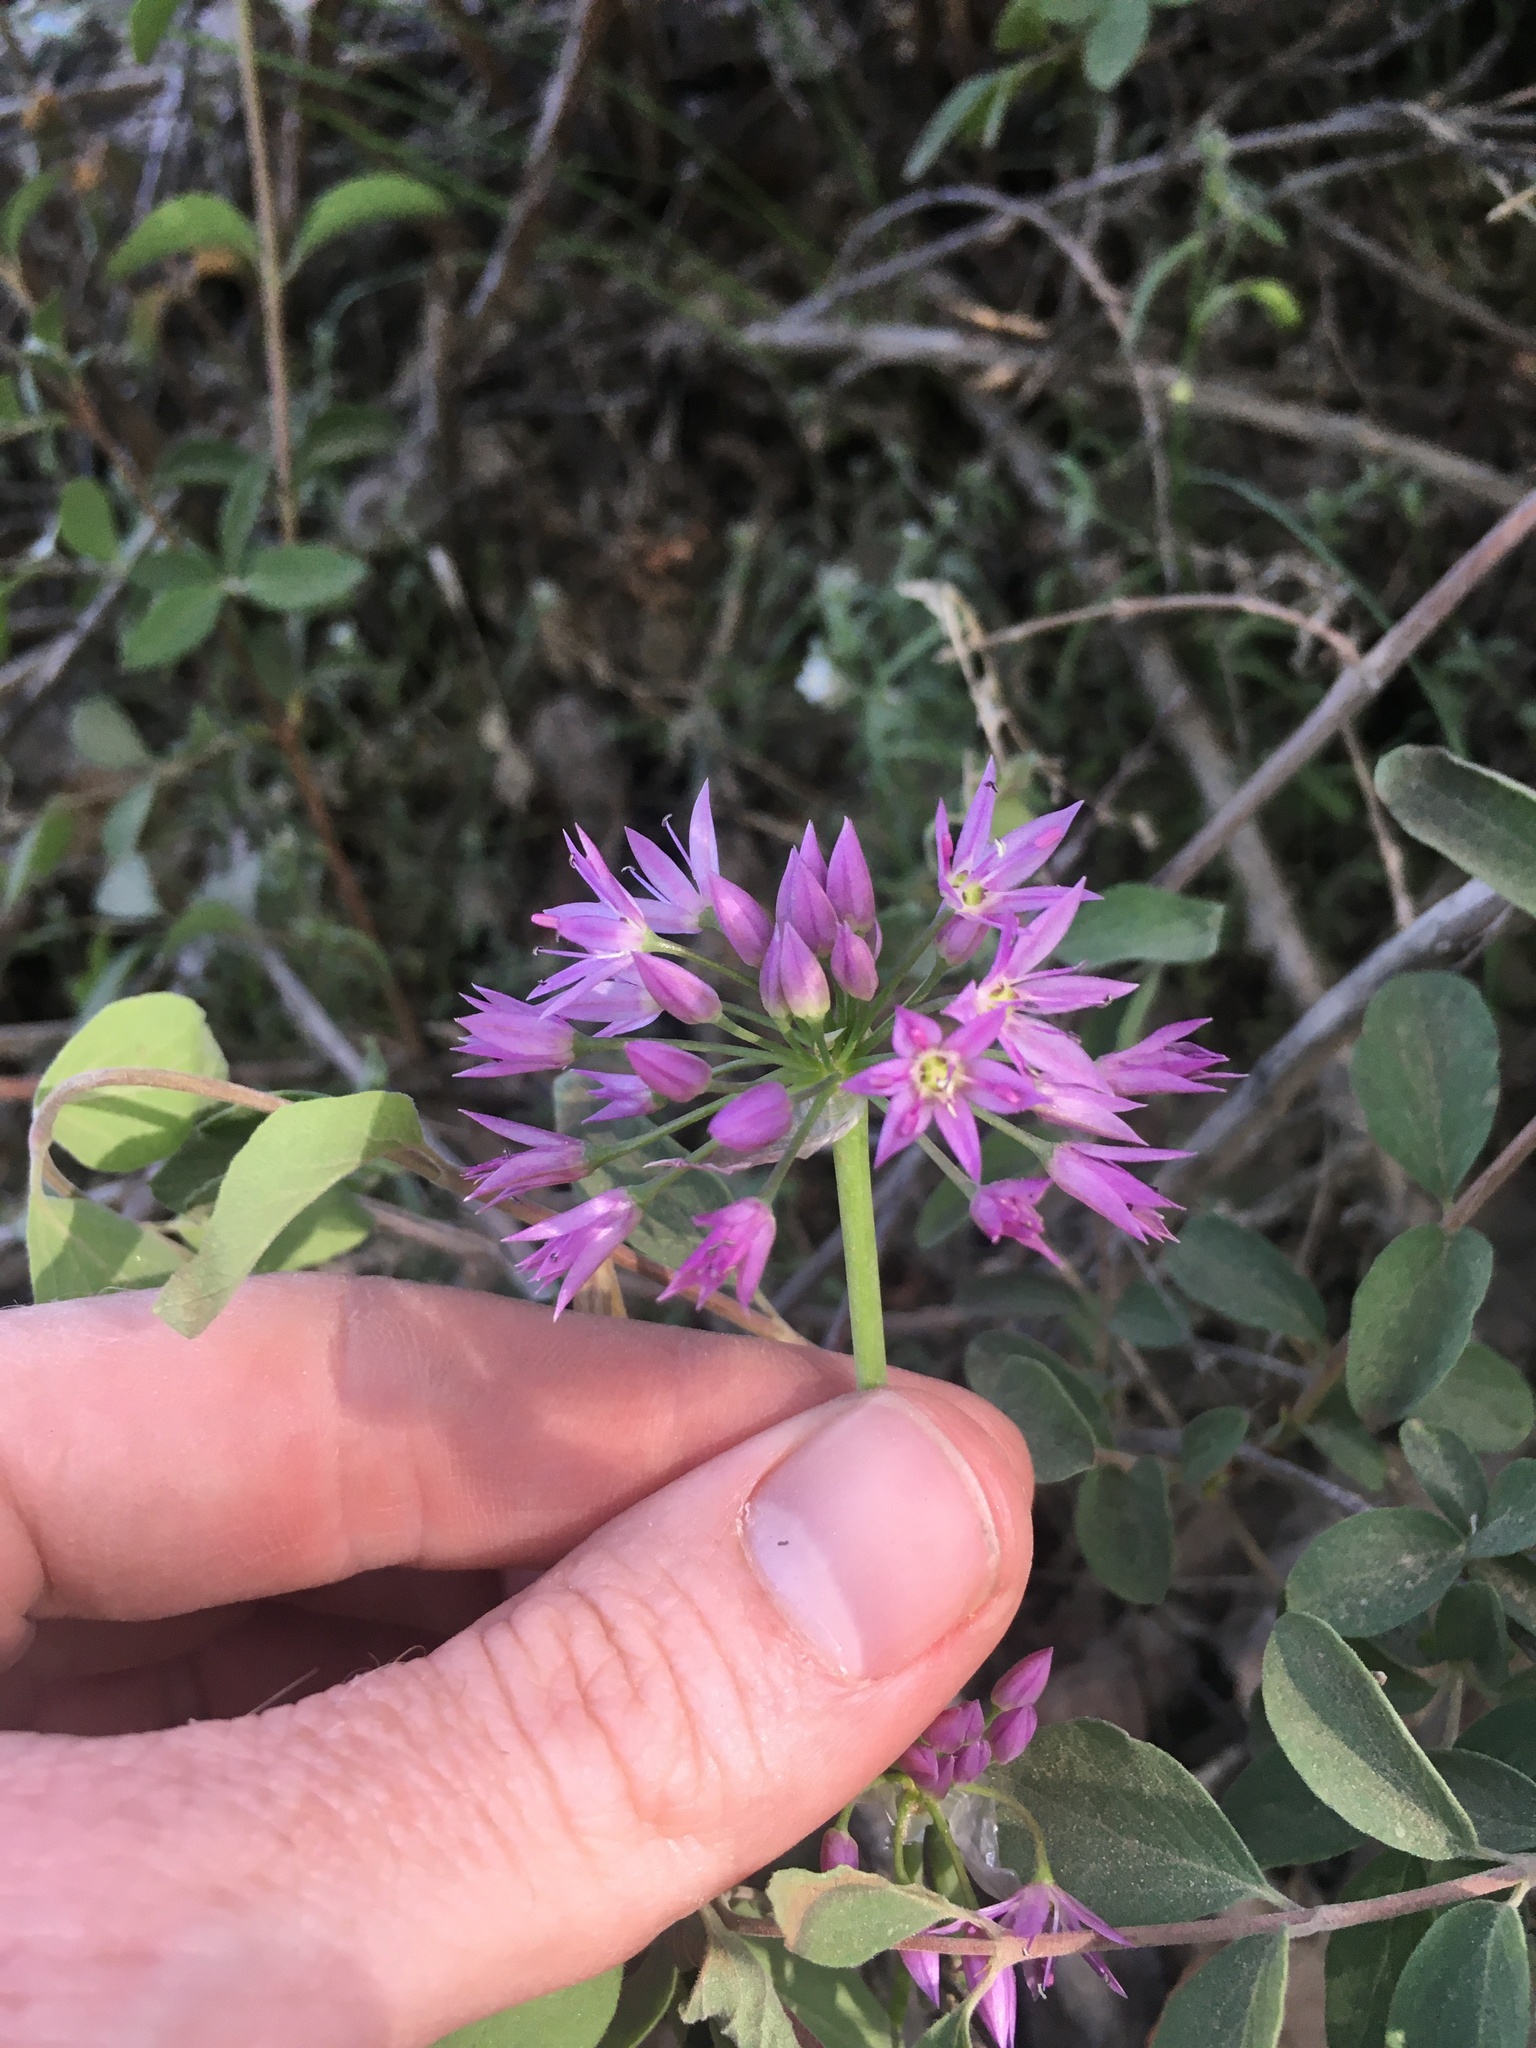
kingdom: Plantae
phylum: Tracheophyta
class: Liliopsida
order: Asparagales
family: Amaryllidaceae
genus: Allium
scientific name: Allium bisceptrum
